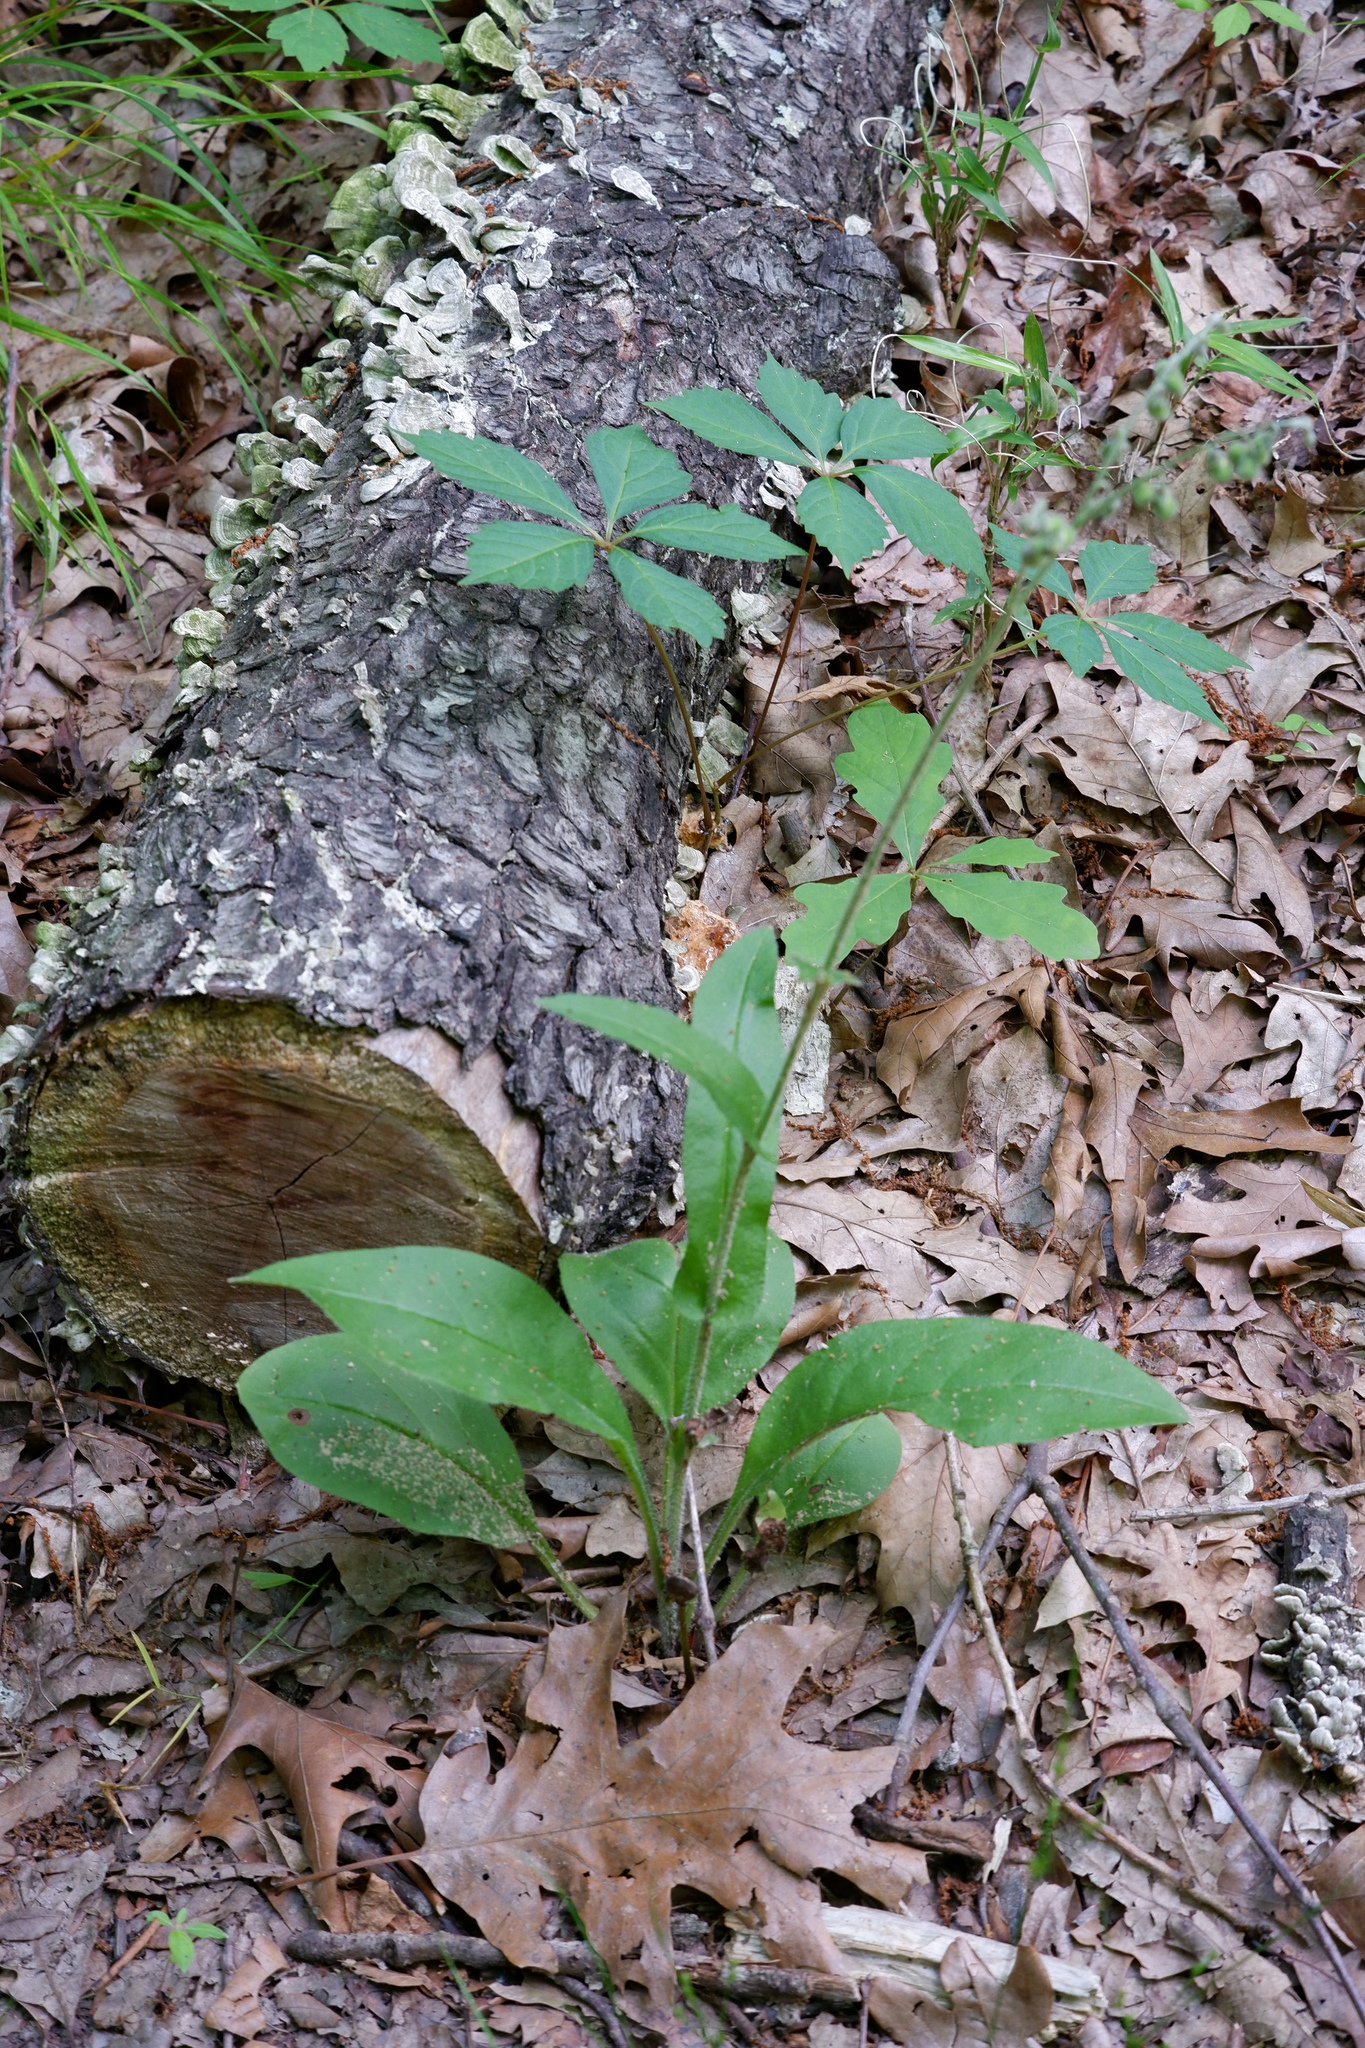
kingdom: Plantae
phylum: Tracheophyta
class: Magnoliopsida
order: Boraginales
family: Boraginaceae
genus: Andersonglossum
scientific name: Andersonglossum virginianum
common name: Wild comfrey
